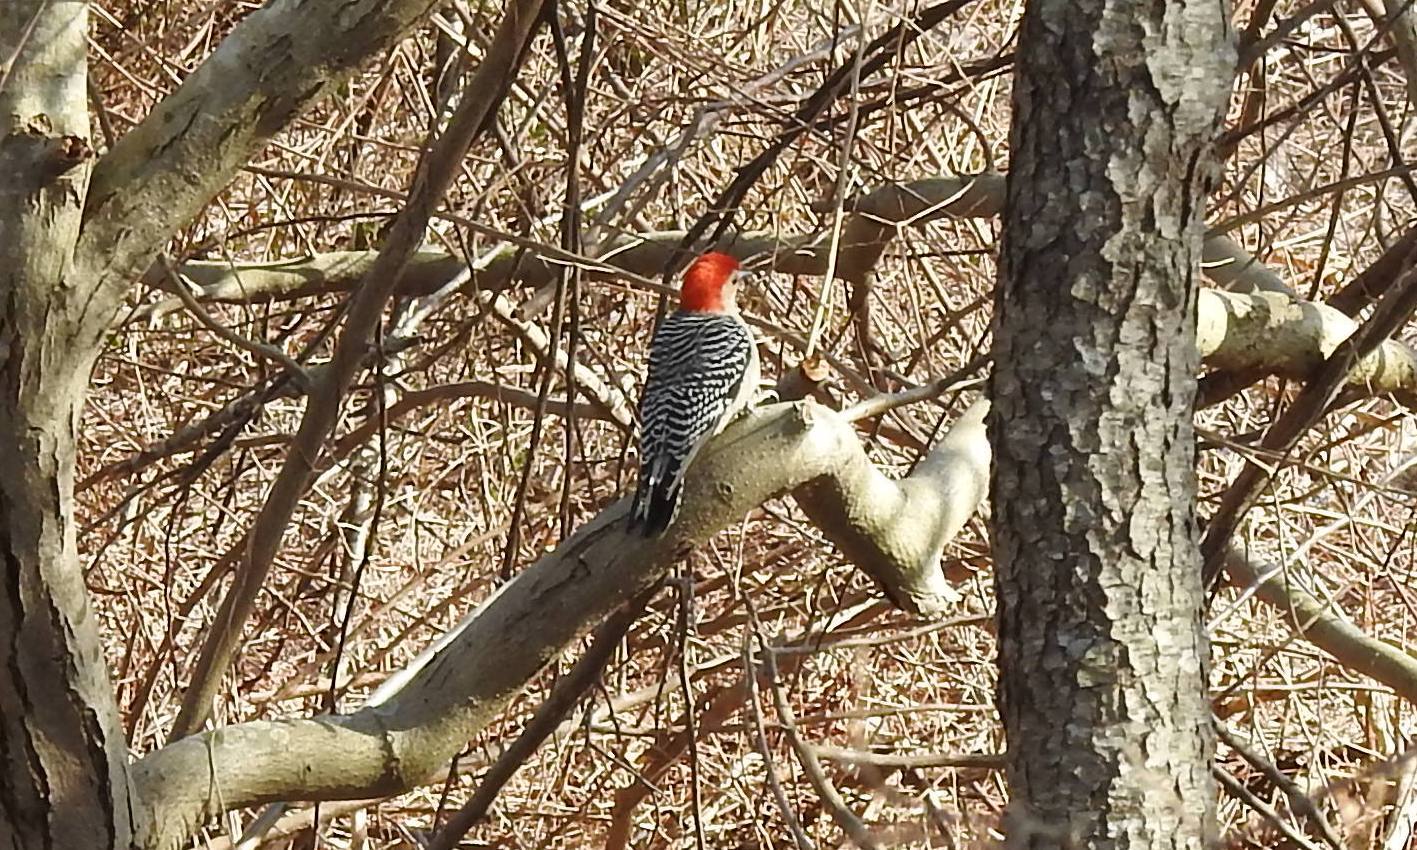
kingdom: Animalia
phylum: Chordata
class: Aves
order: Piciformes
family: Picidae
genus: Melanerpes
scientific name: Melanerpes carolinus
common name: Red-bellied woodpecker
